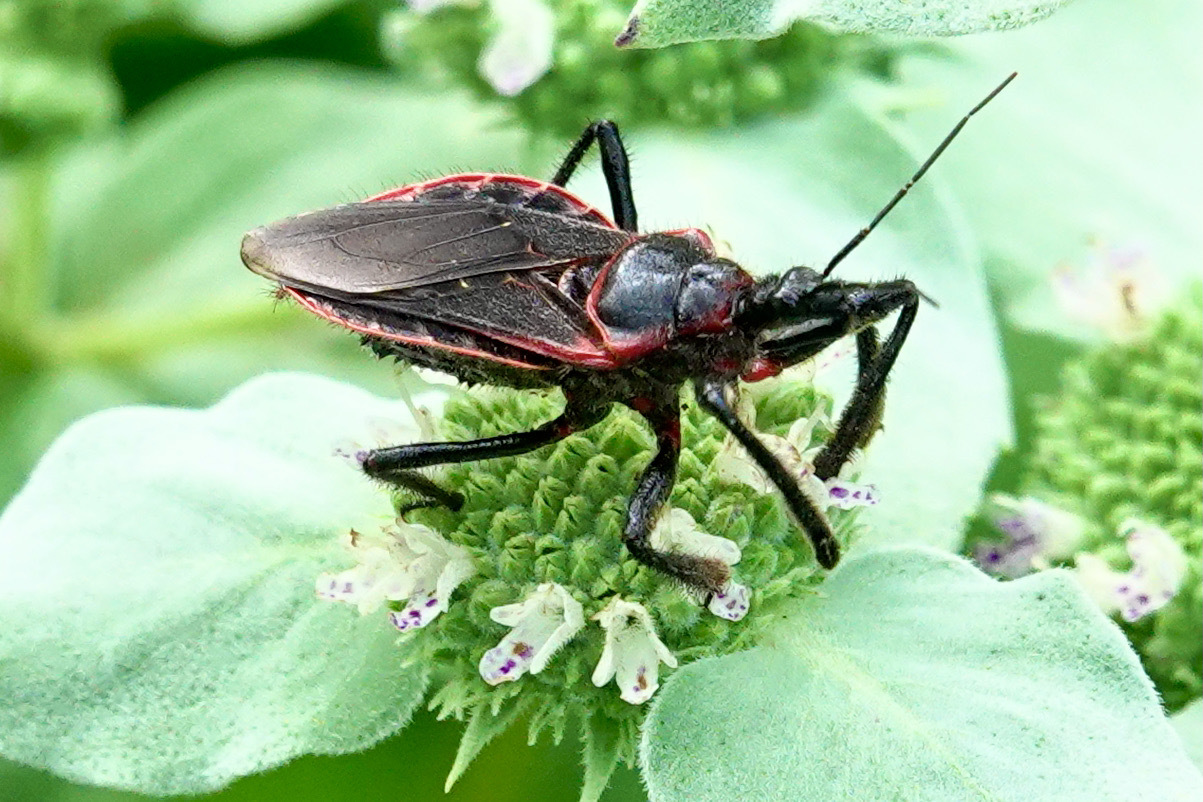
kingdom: Animalia
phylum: Arthropoda
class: Insecta
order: Hemiptera
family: Reduviidae
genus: Apiomerus
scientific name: Apiomerus crassipes
